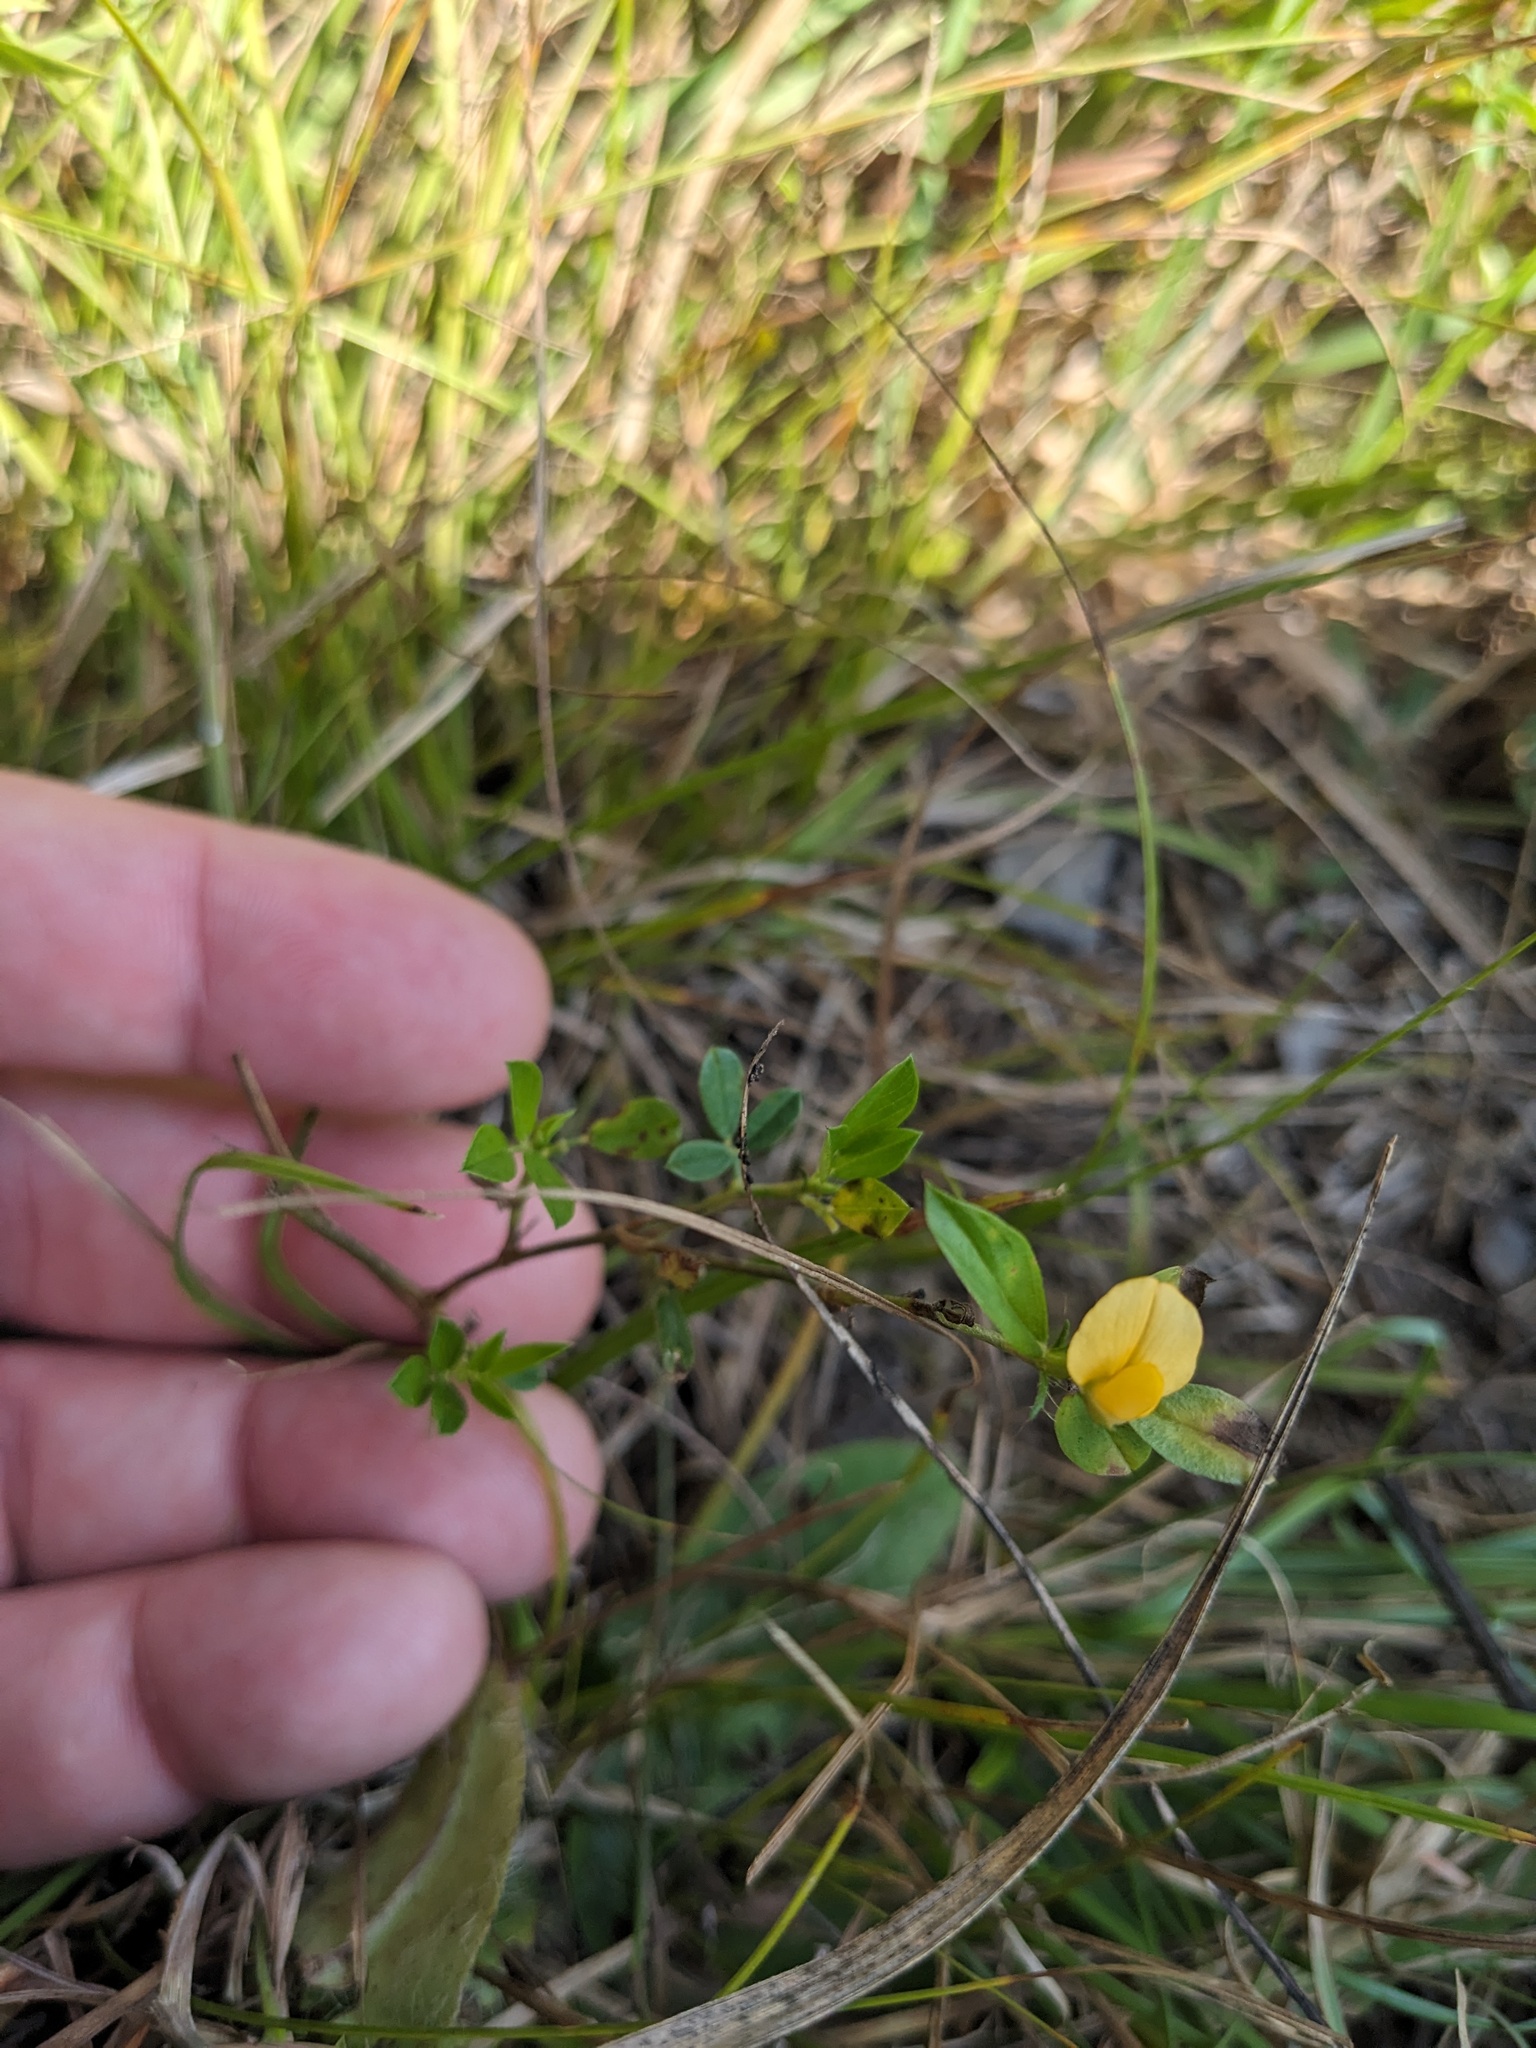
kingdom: Plantae
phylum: Tracheophyta
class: Magnoliopsida
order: Fabales
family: Fabaceae
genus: Stylosanthes
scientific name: Stylosanthes biflora
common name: Two-flower pencil-flower
